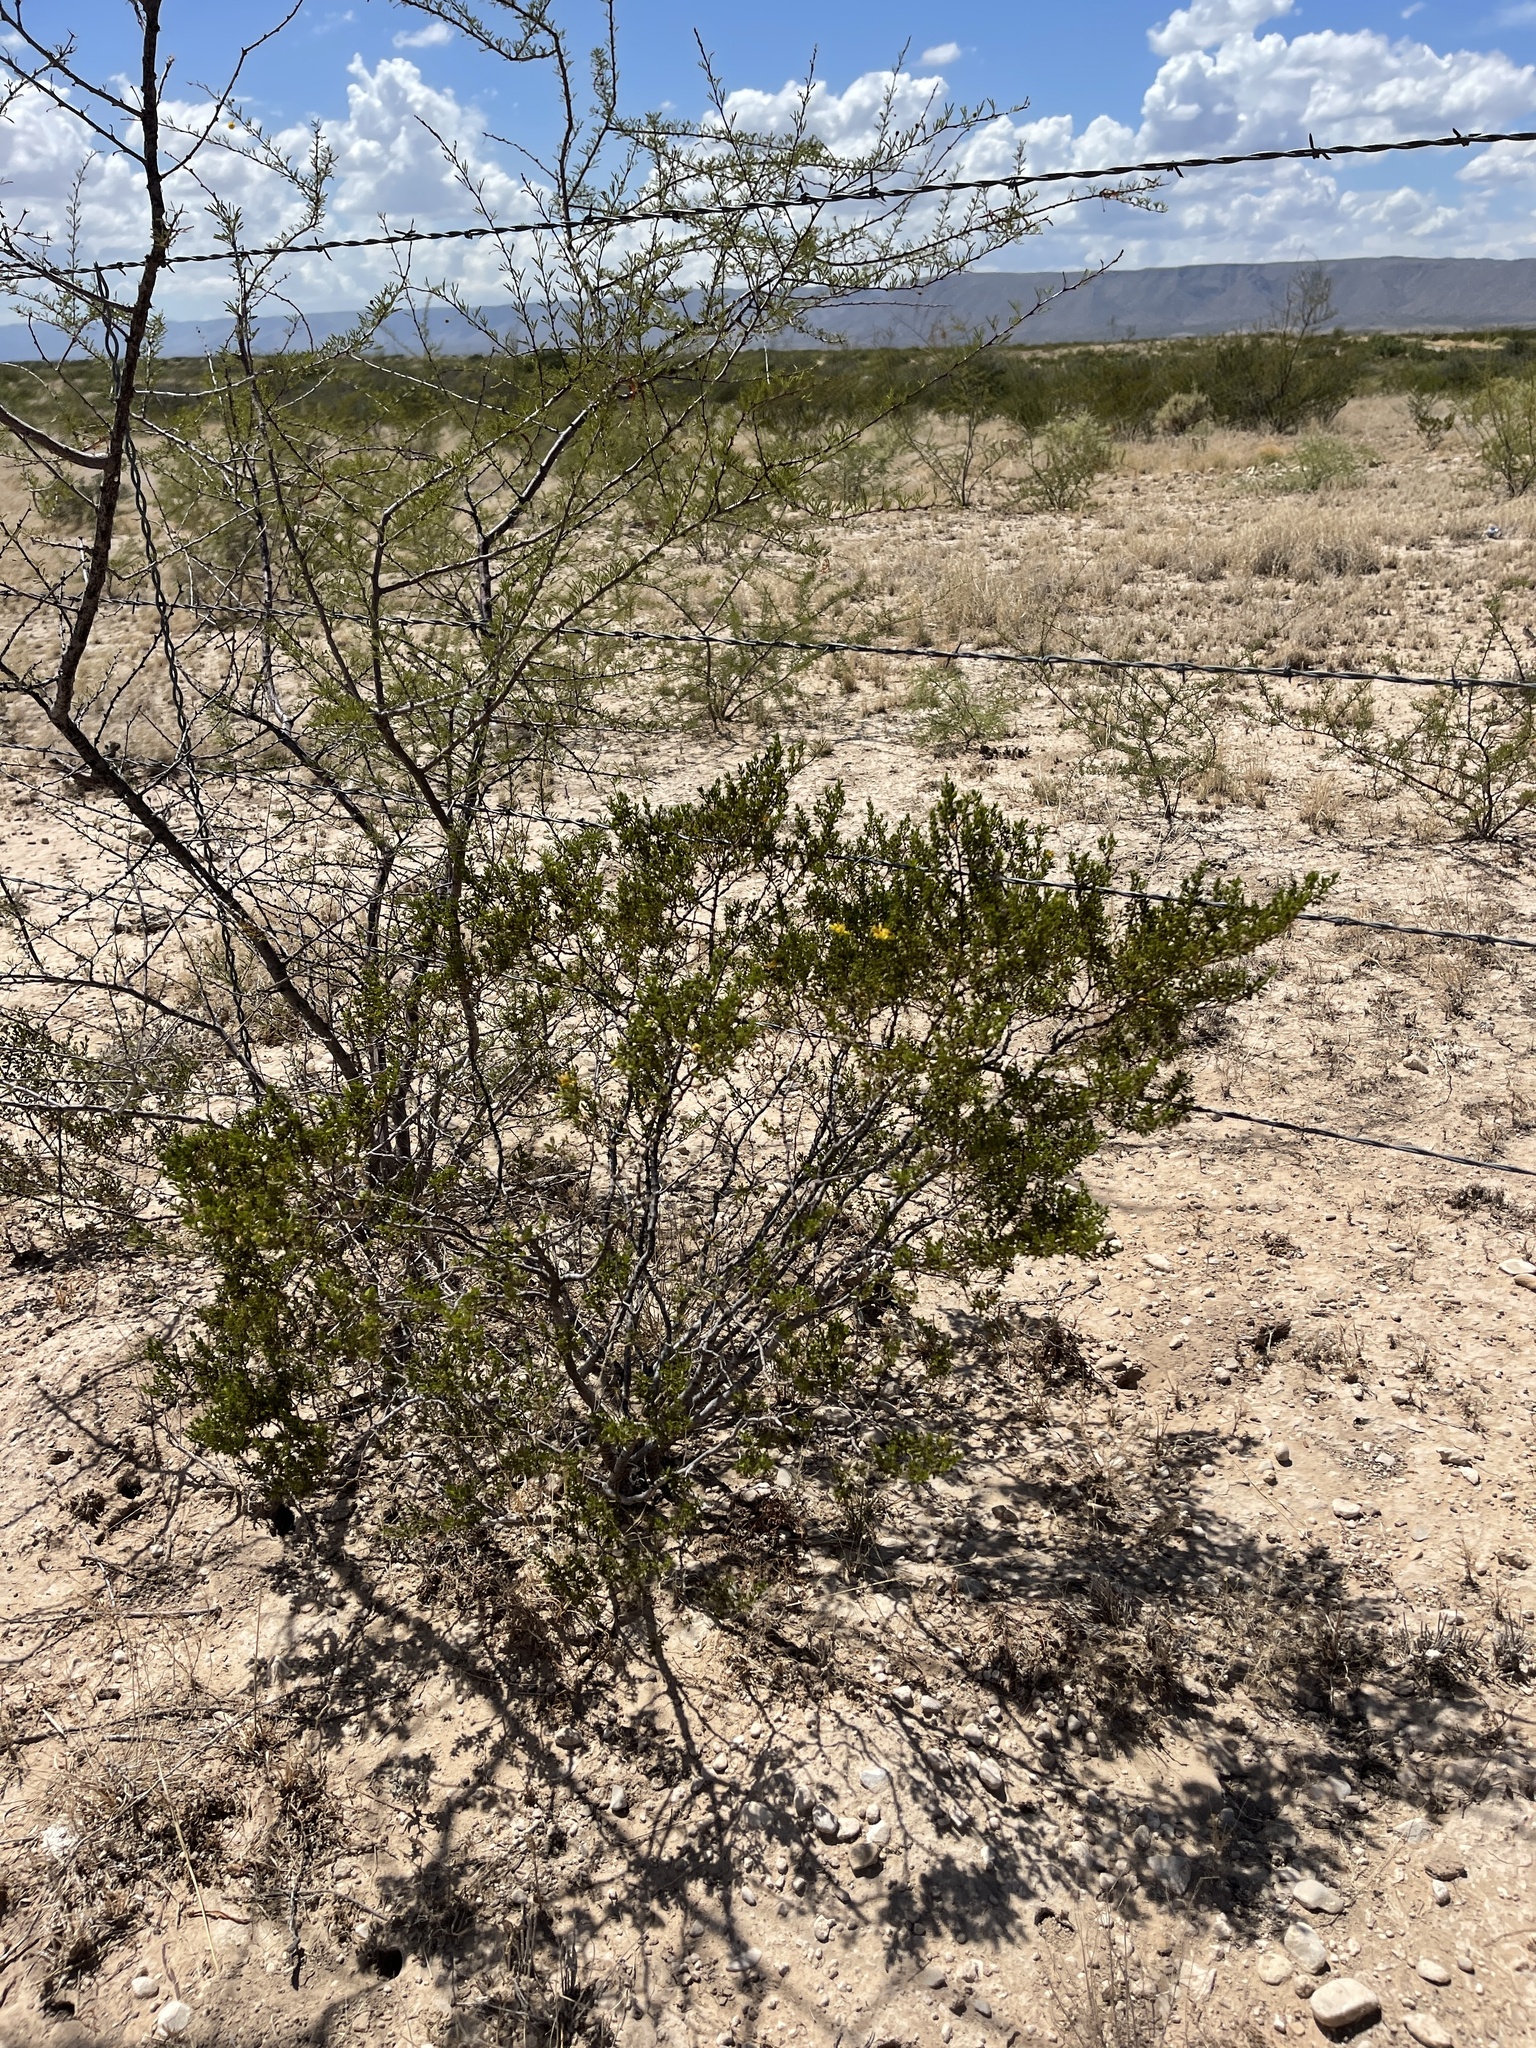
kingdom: Plantae
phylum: Tracheophyta
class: Magnoliopsida
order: Zygophyllales
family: Zygophyllaceae
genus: Larrea
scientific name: Larrea tridentata
